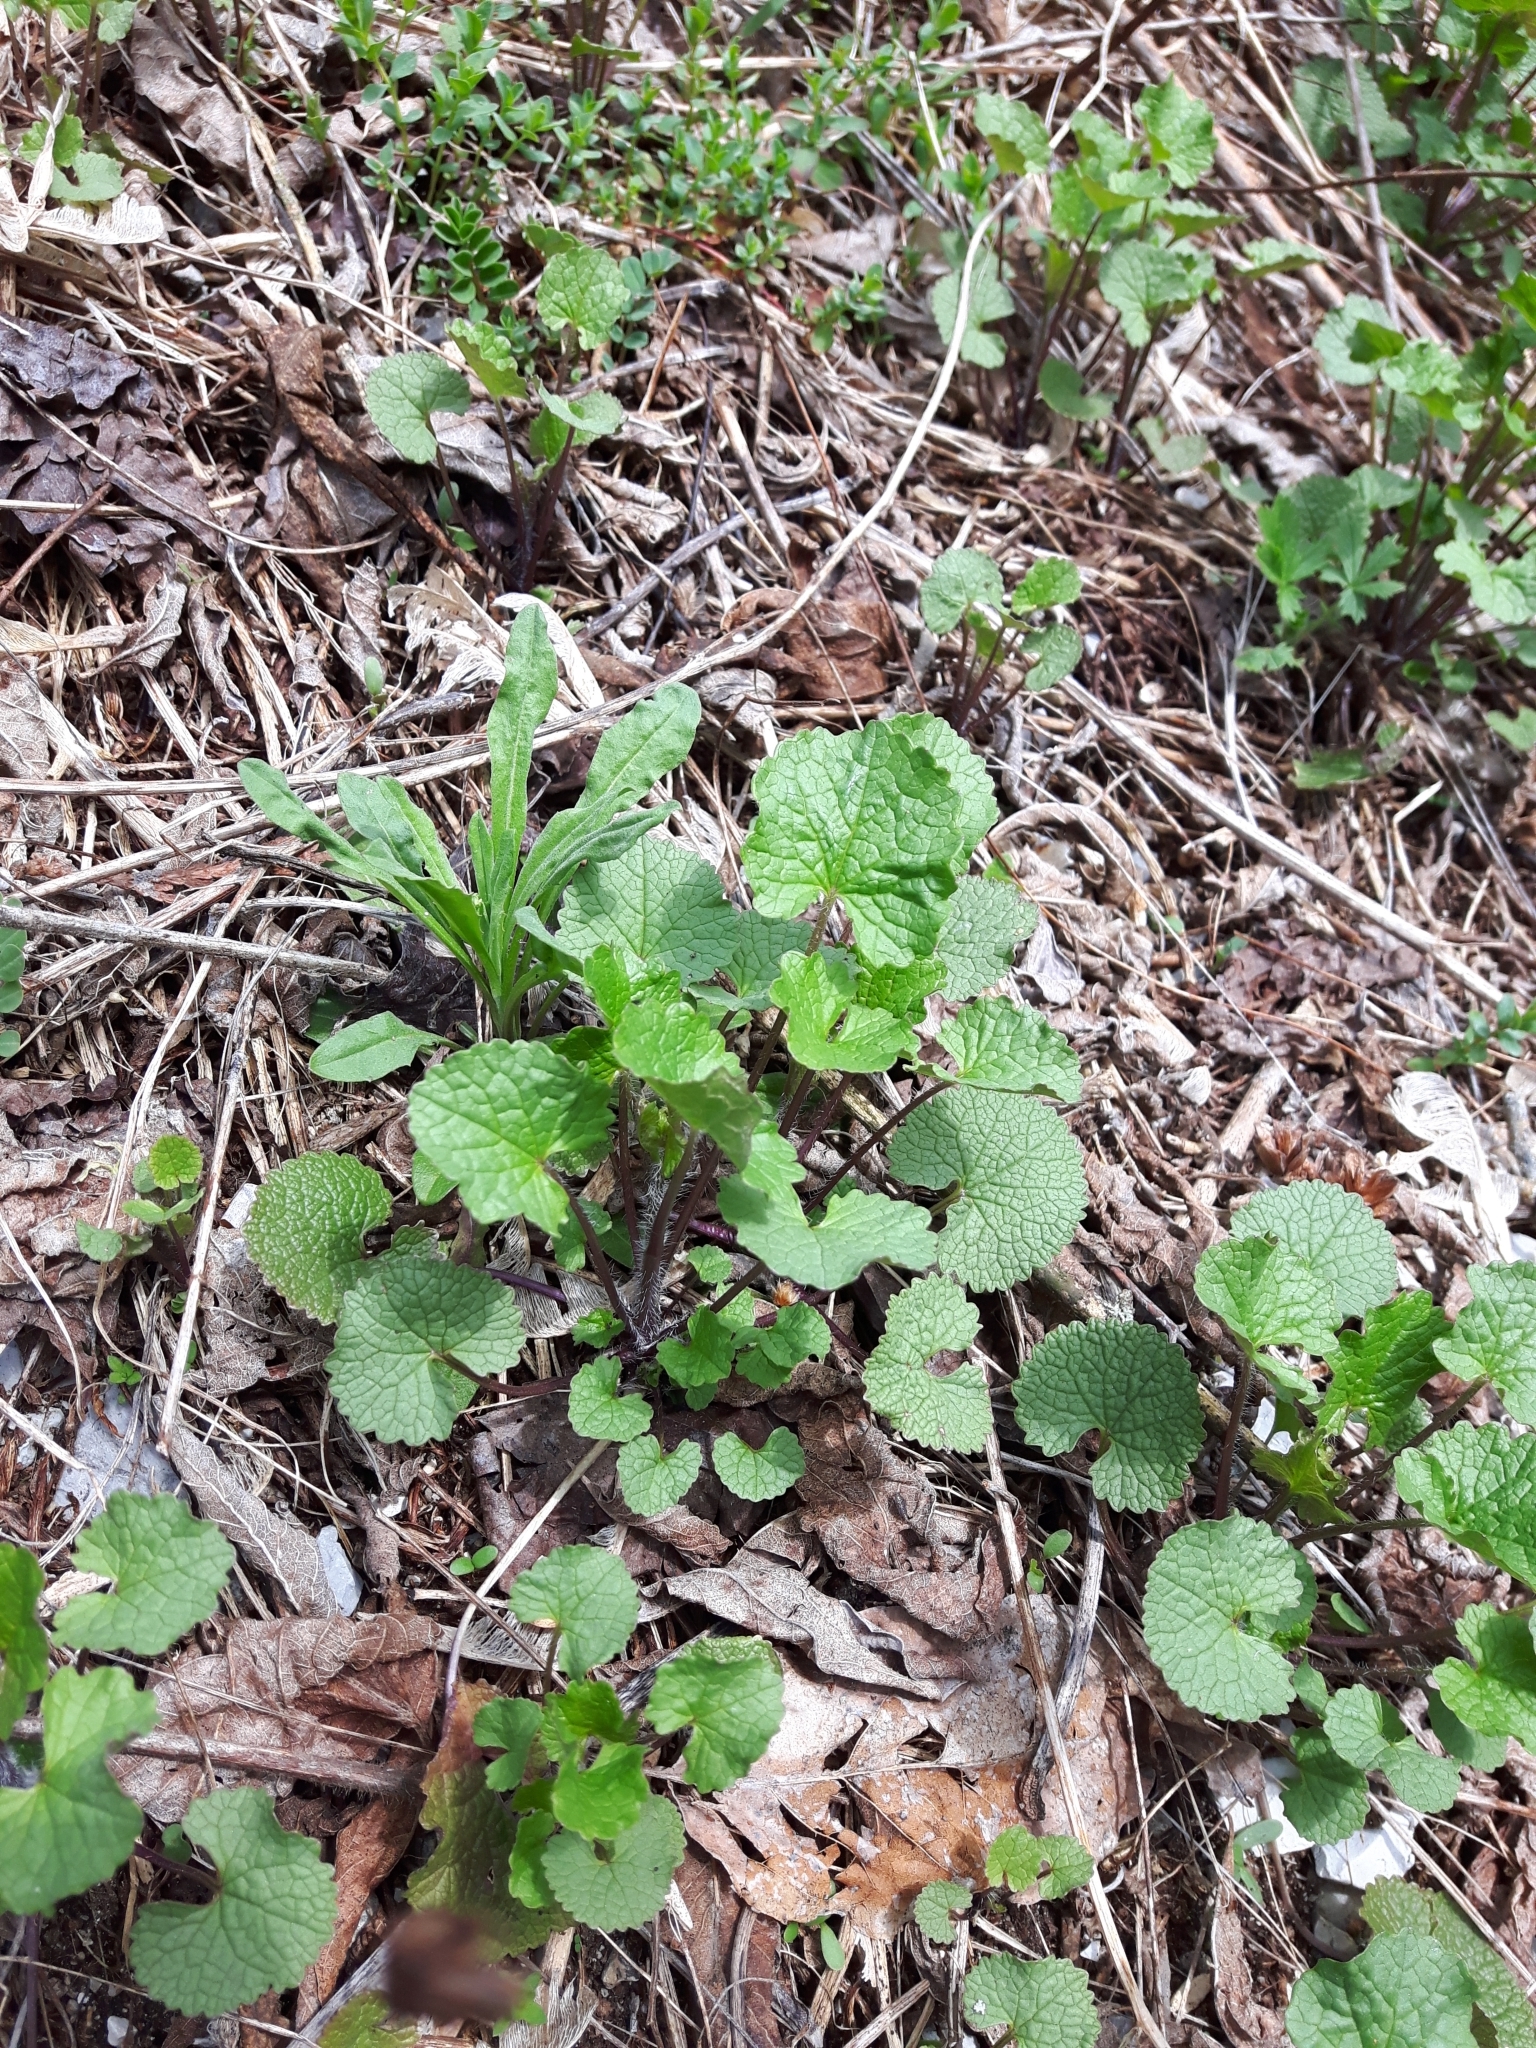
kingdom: Plantae
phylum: Tracheophyta
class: Magnoliopsida
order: Brassicales
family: Brassicaceae
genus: Alliaria
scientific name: Alliaria petiolata
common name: Garlic mustard
